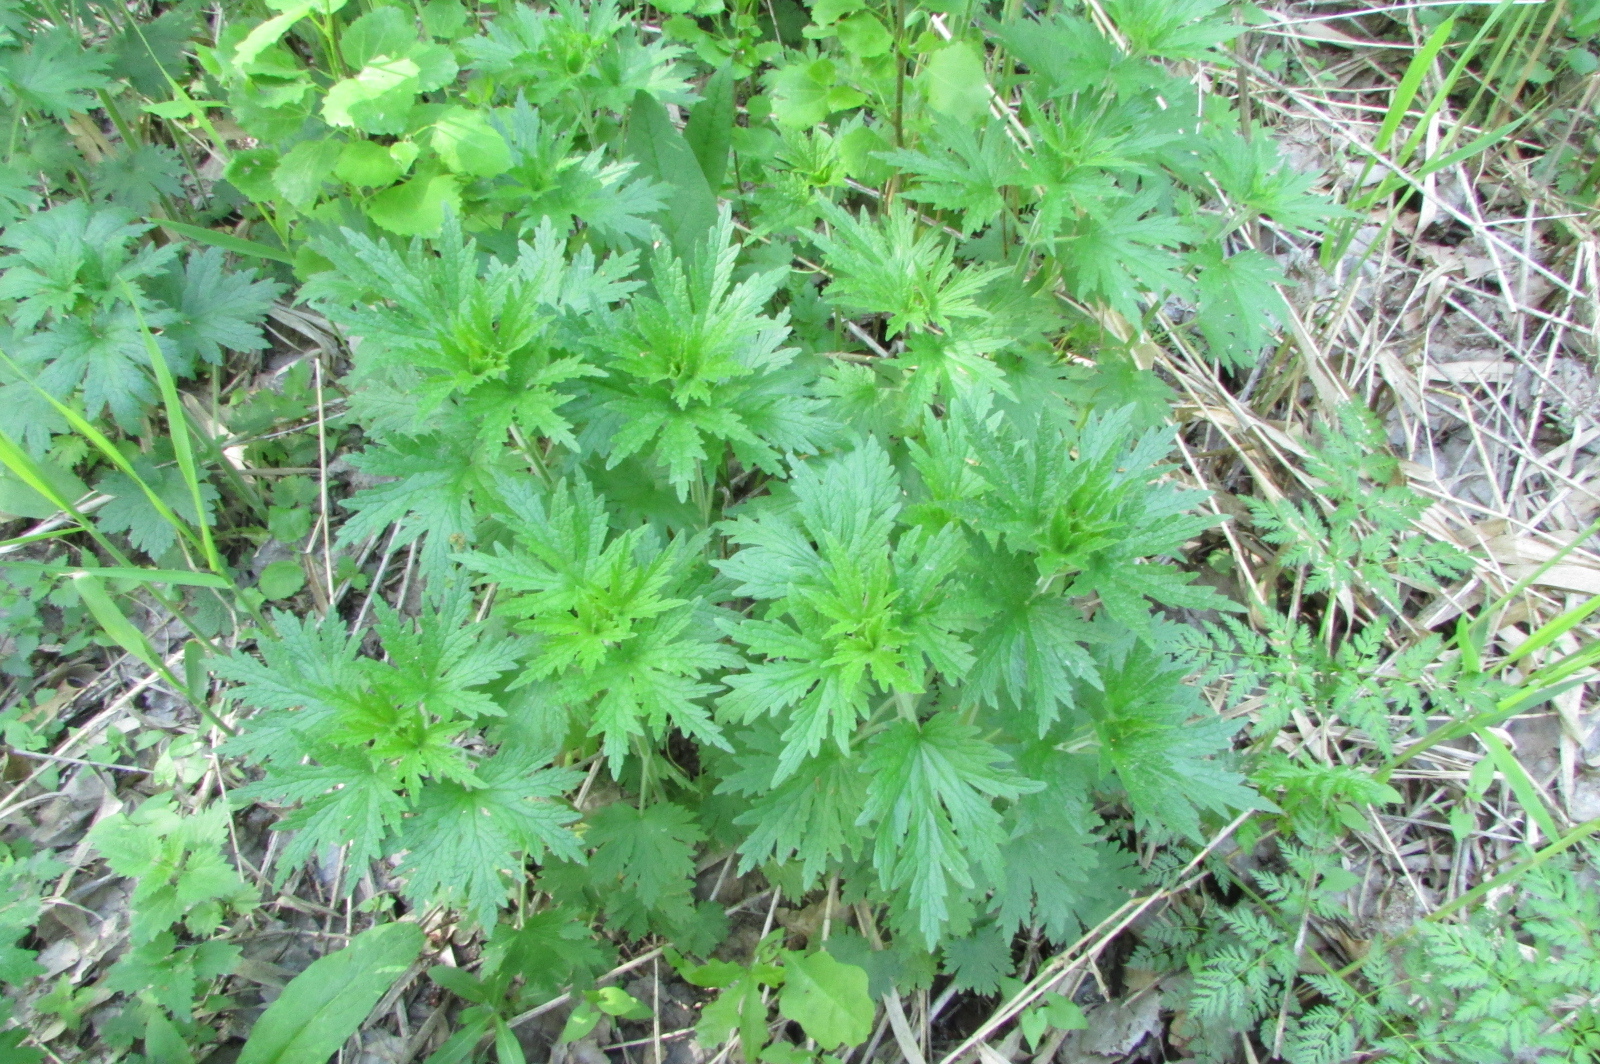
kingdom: Plantae
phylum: Tracheophyta
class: Magnoliopsida
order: Lamiales
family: Lamiaceae
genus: Leonurus
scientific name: Leonurus quinquelobatus
